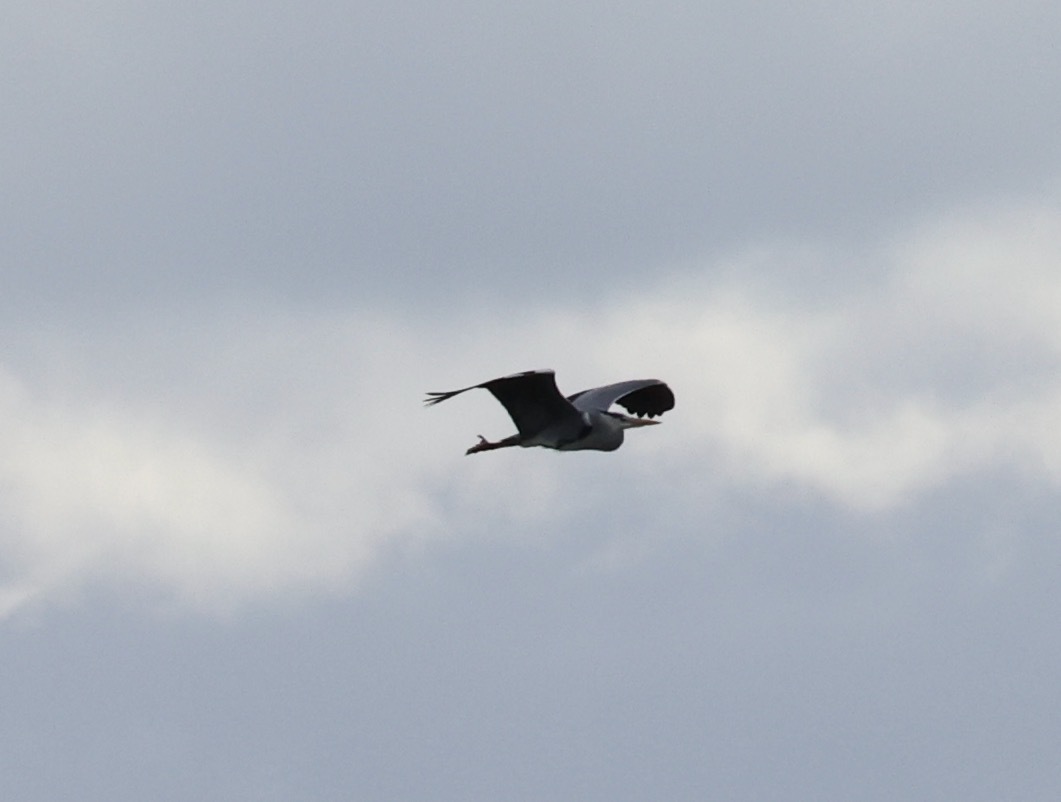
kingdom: Animalia
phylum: Chordata
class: Aves
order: Pelecaniformes
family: Ardeidae
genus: Ardea
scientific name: Ardea cinerea
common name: Grey heron
